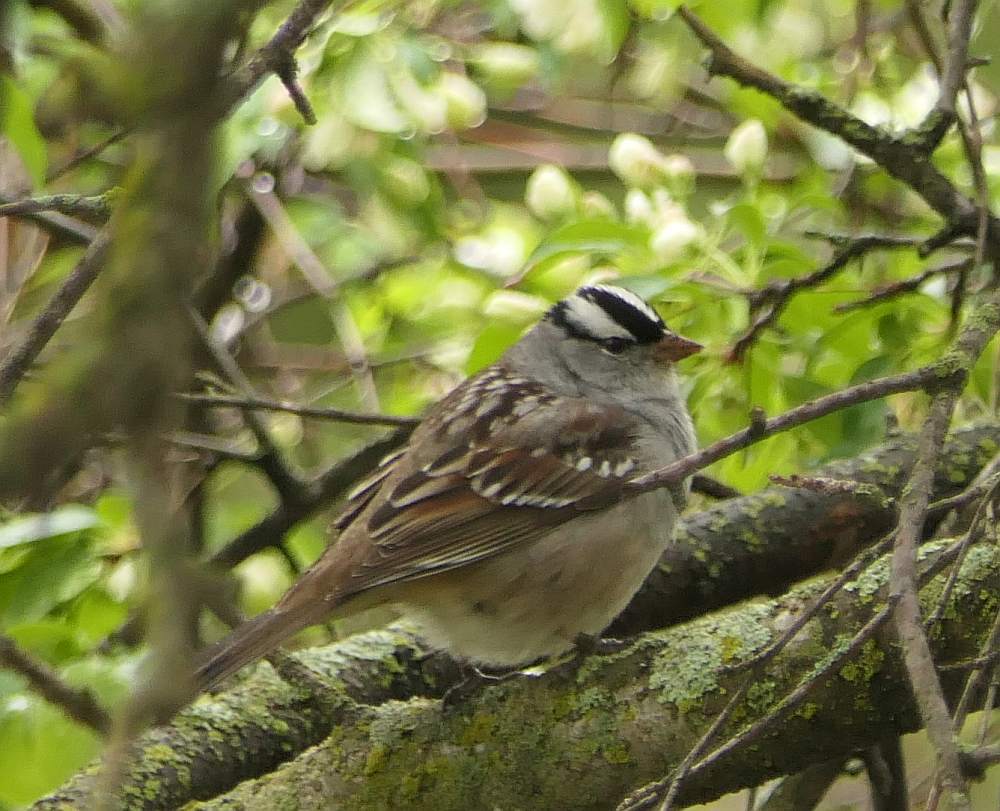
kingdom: Animalia
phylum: Chordata
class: Aves
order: Passeriformes
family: Passerellidae
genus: Zonotrichia
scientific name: Zonotrichia leucophrys
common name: White-crowned sparrow
